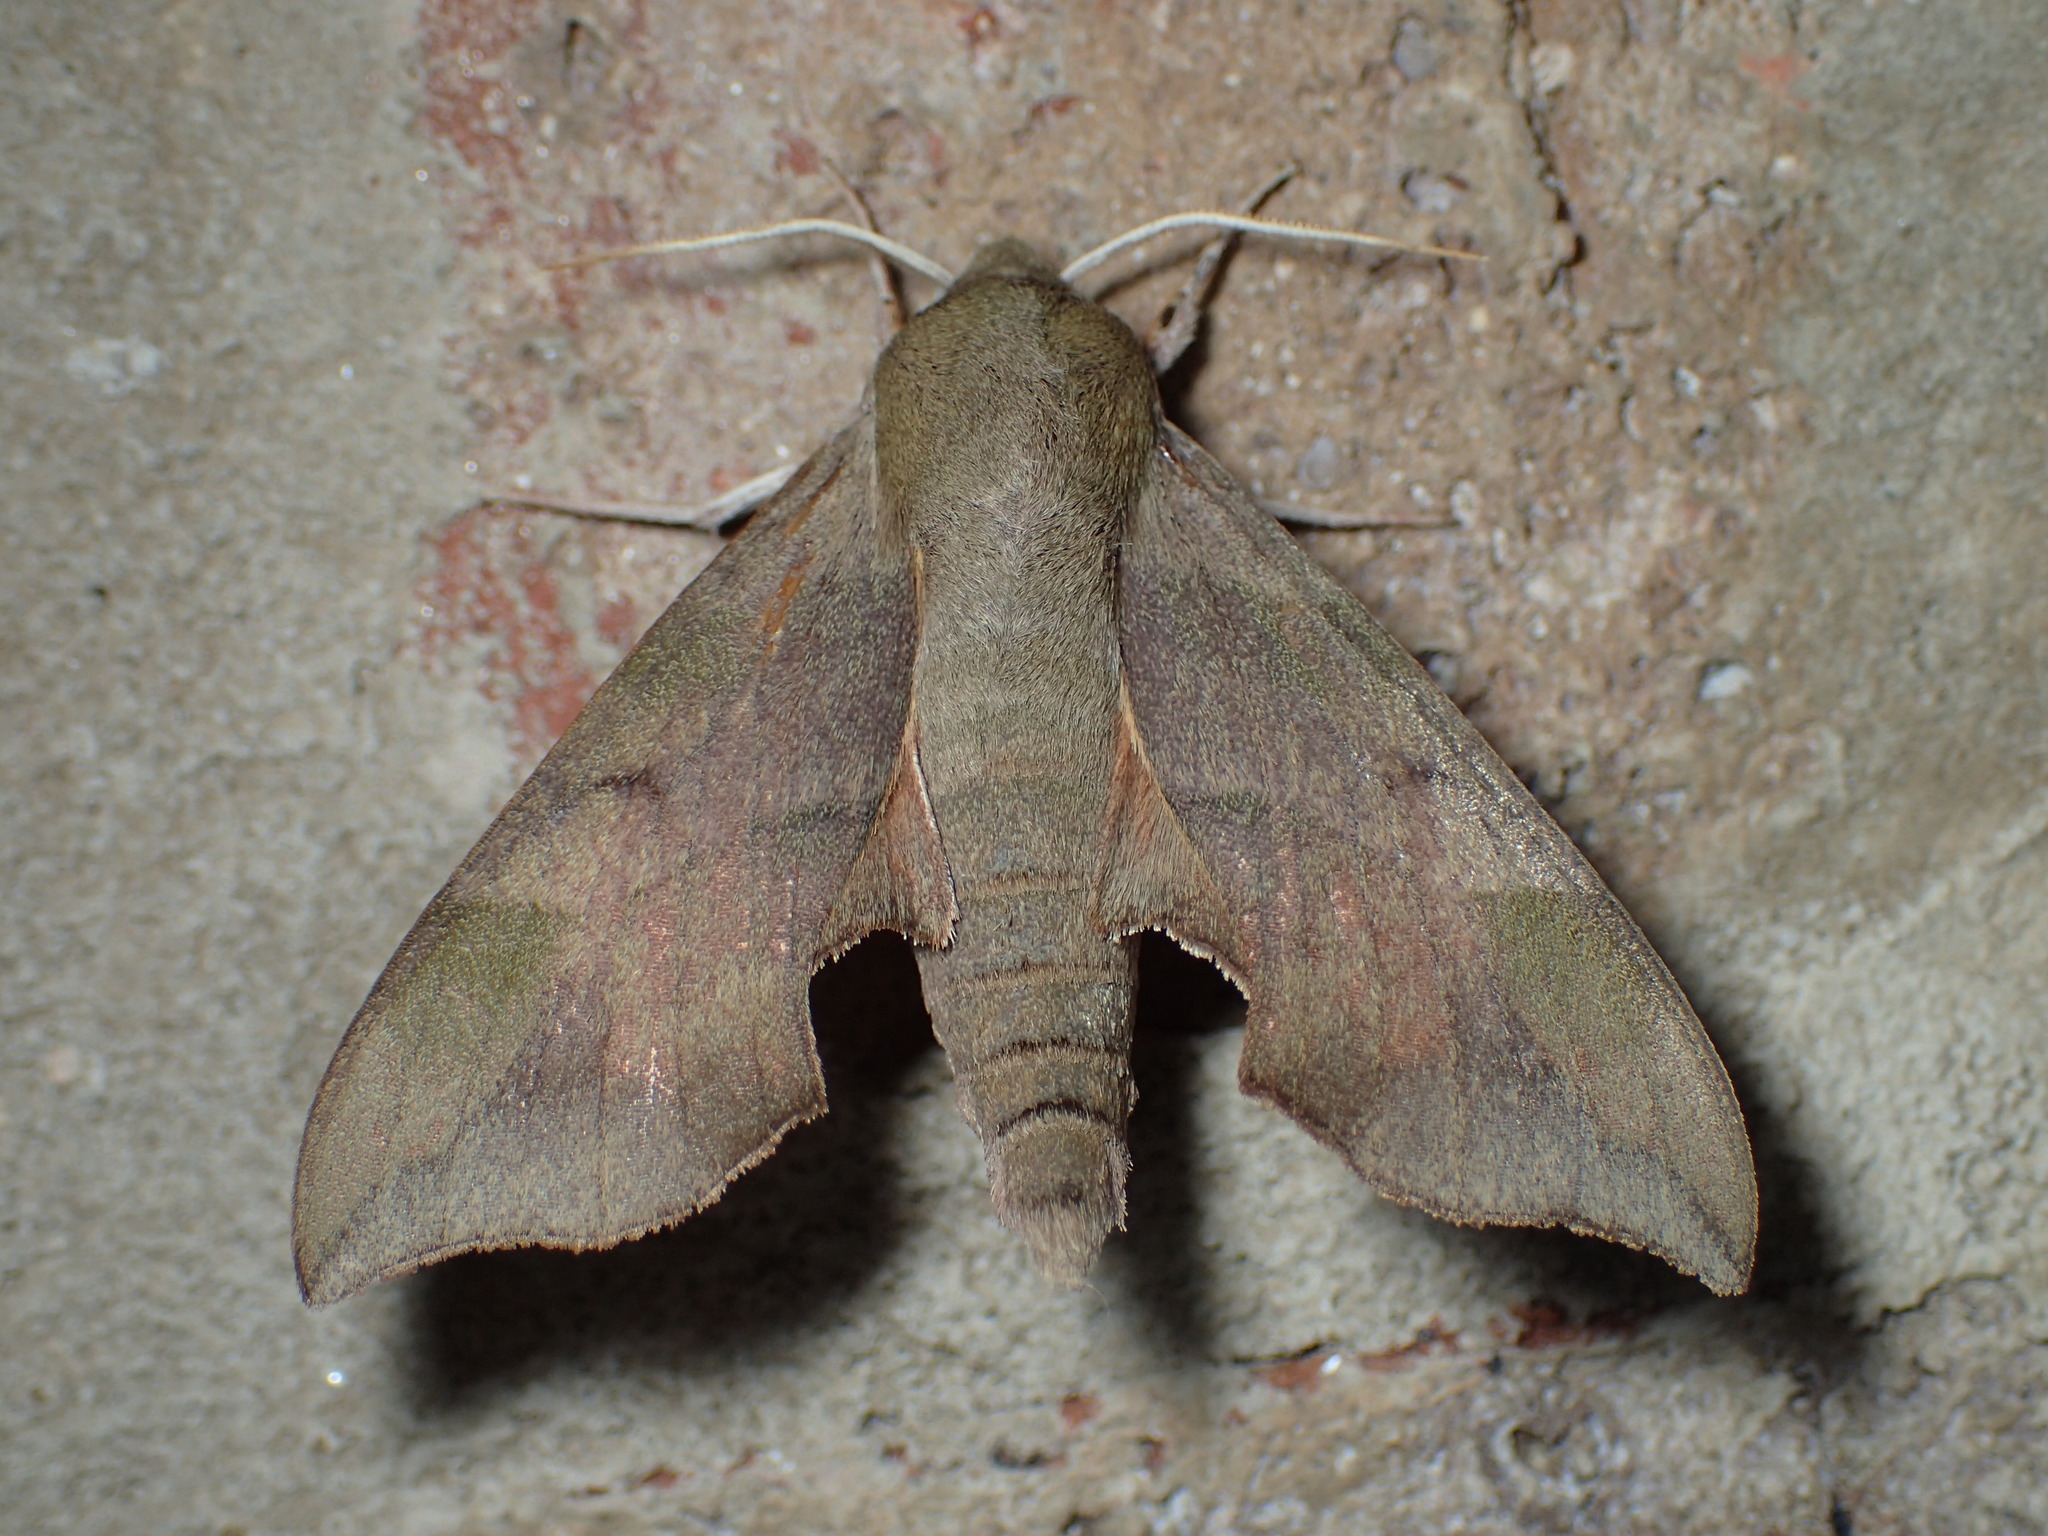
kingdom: Animalia
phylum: Arthropoda
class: Insecta
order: Lepidoptera
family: Sphingidae
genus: Darapsa
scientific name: Darapsa myron
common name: Hog sphinx
